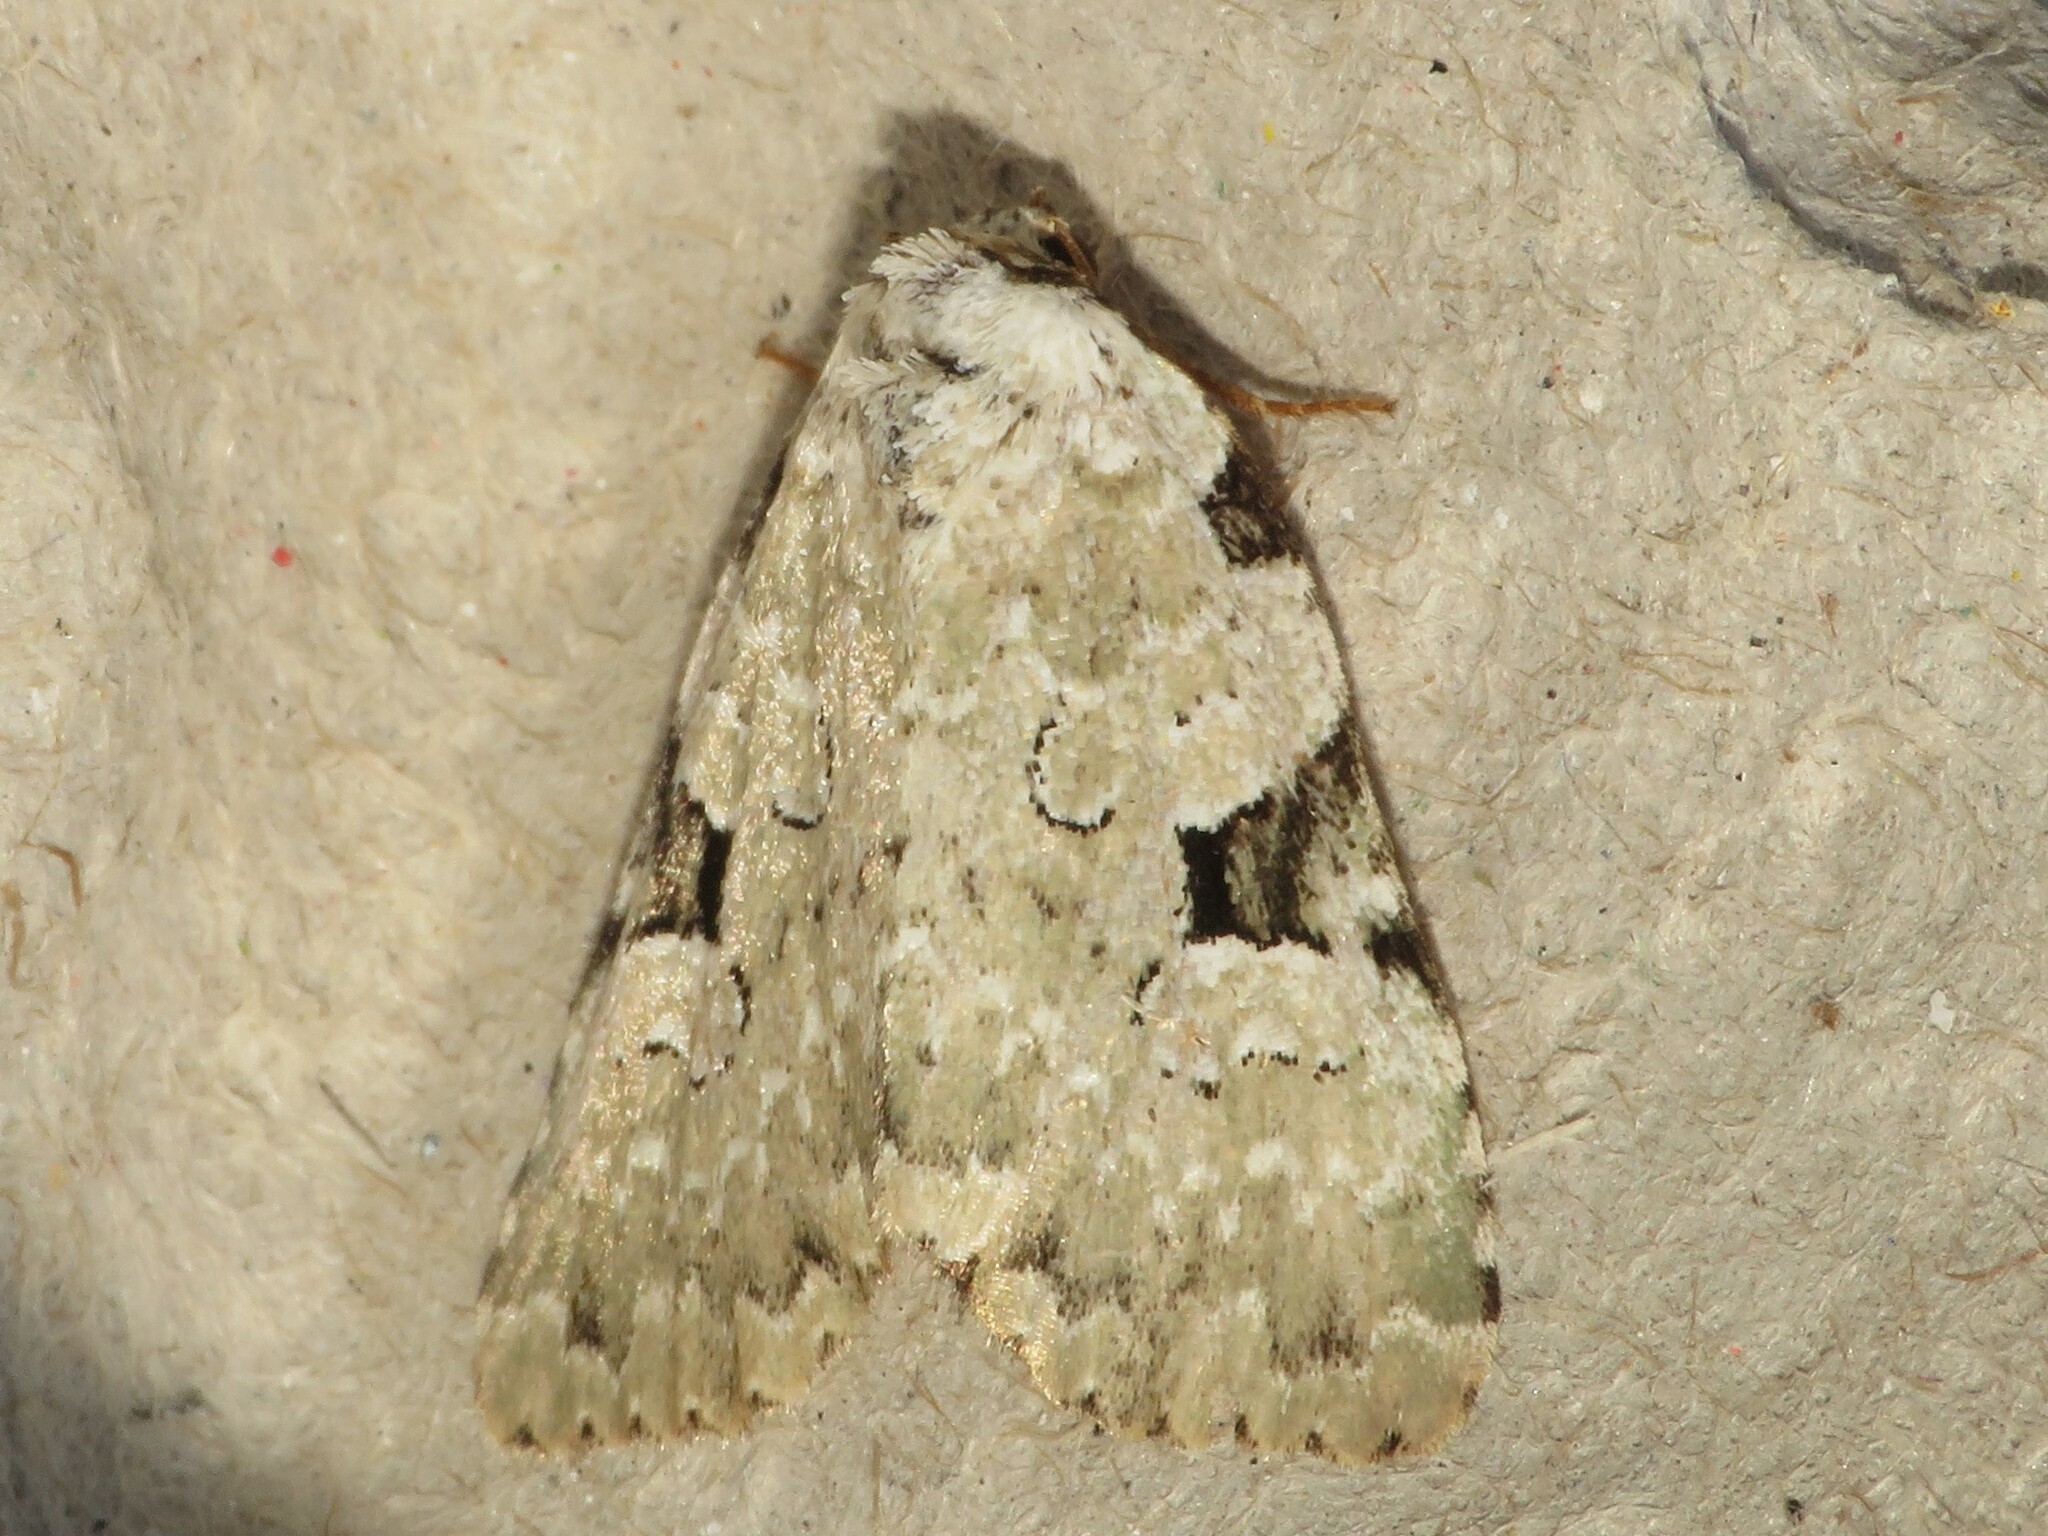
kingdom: Animalia
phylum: Arthropoda
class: Insecta
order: Lepidoptera
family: Noctuidae
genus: Leuconycta
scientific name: Leuconycta diphteroides
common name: Green leuconycta moth
